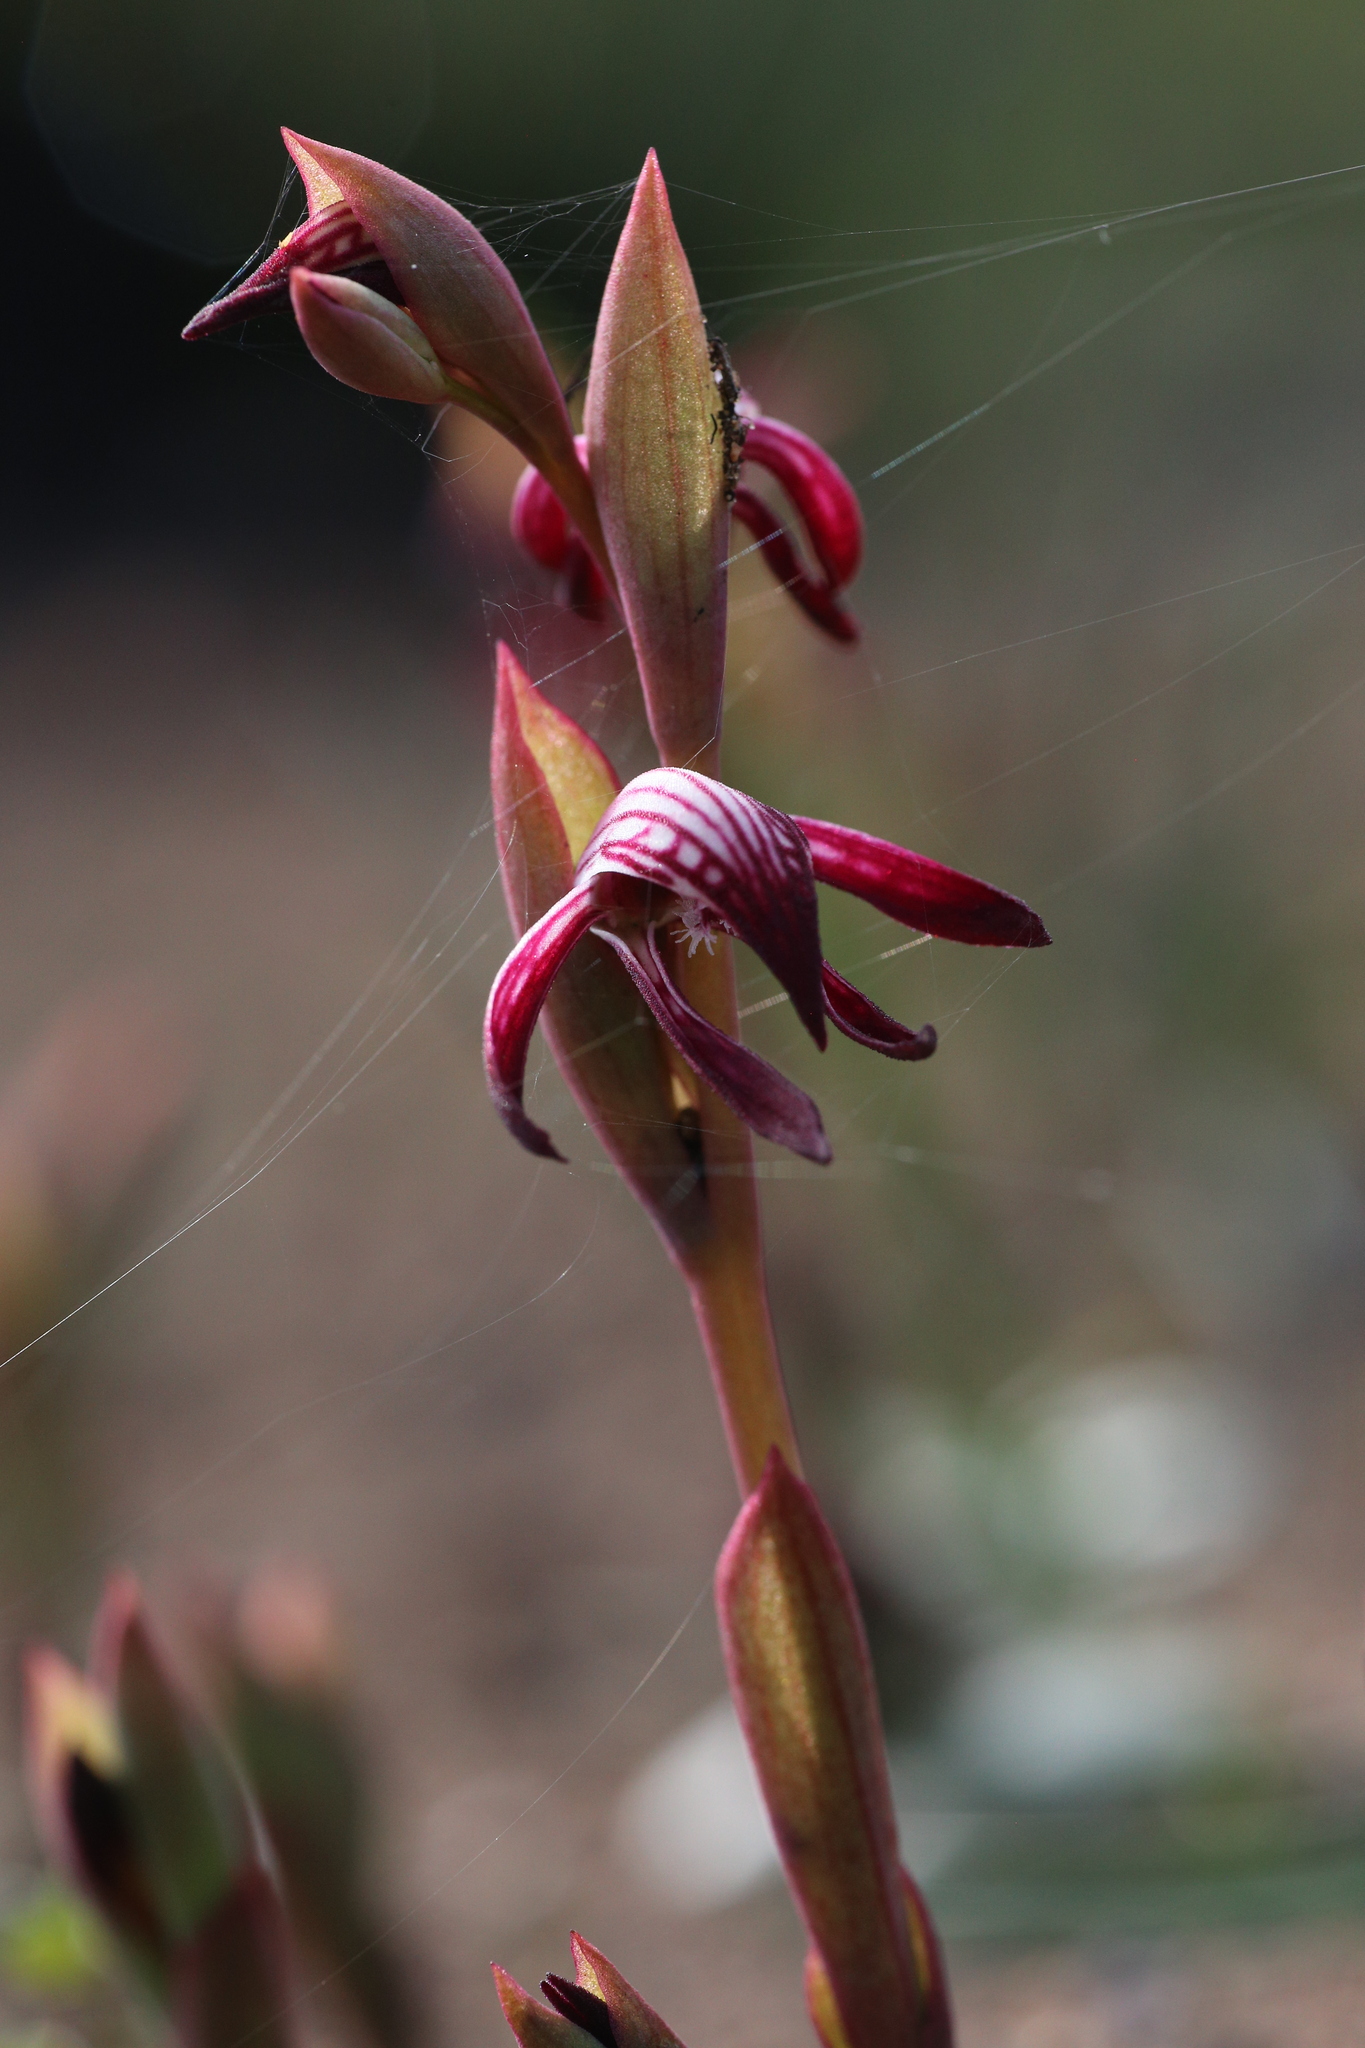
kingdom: Plantae
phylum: Tracheophyta
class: Liliopsida
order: Asparagales
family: Orchidaceae
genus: Pyrorchis
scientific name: Pyrorchis nigricans
